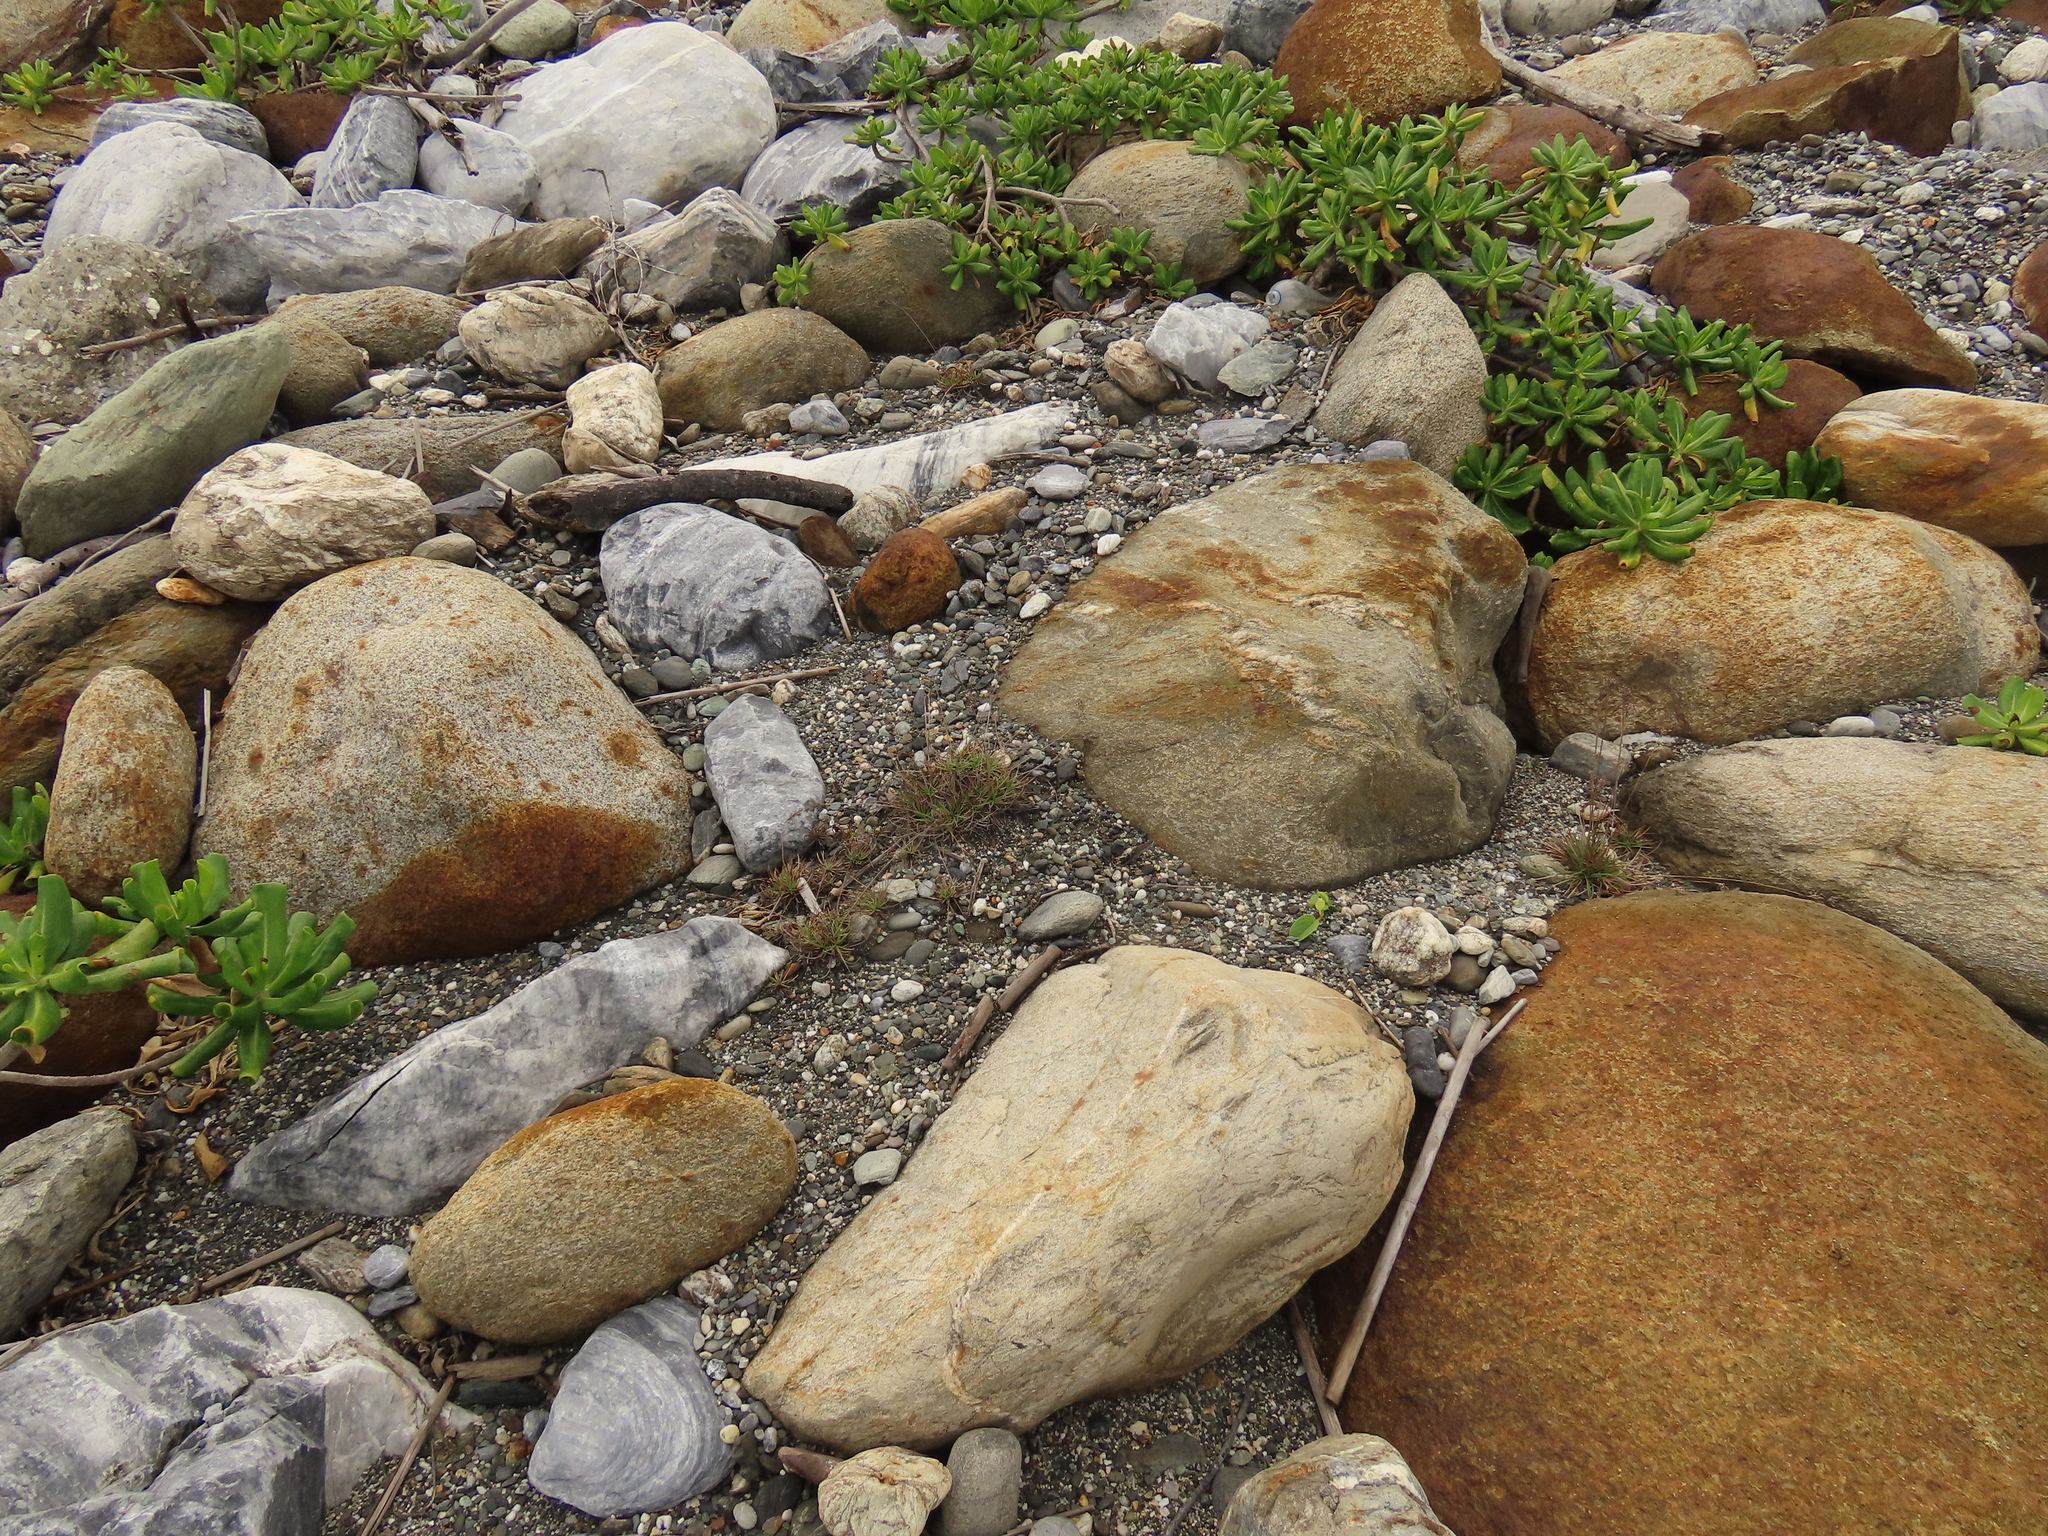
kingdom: Plantae
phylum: Tracheophyta
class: Liliopsida
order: Poales
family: Cyperaceae
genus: Fimbristylis
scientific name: Fimbristylis cymosa
